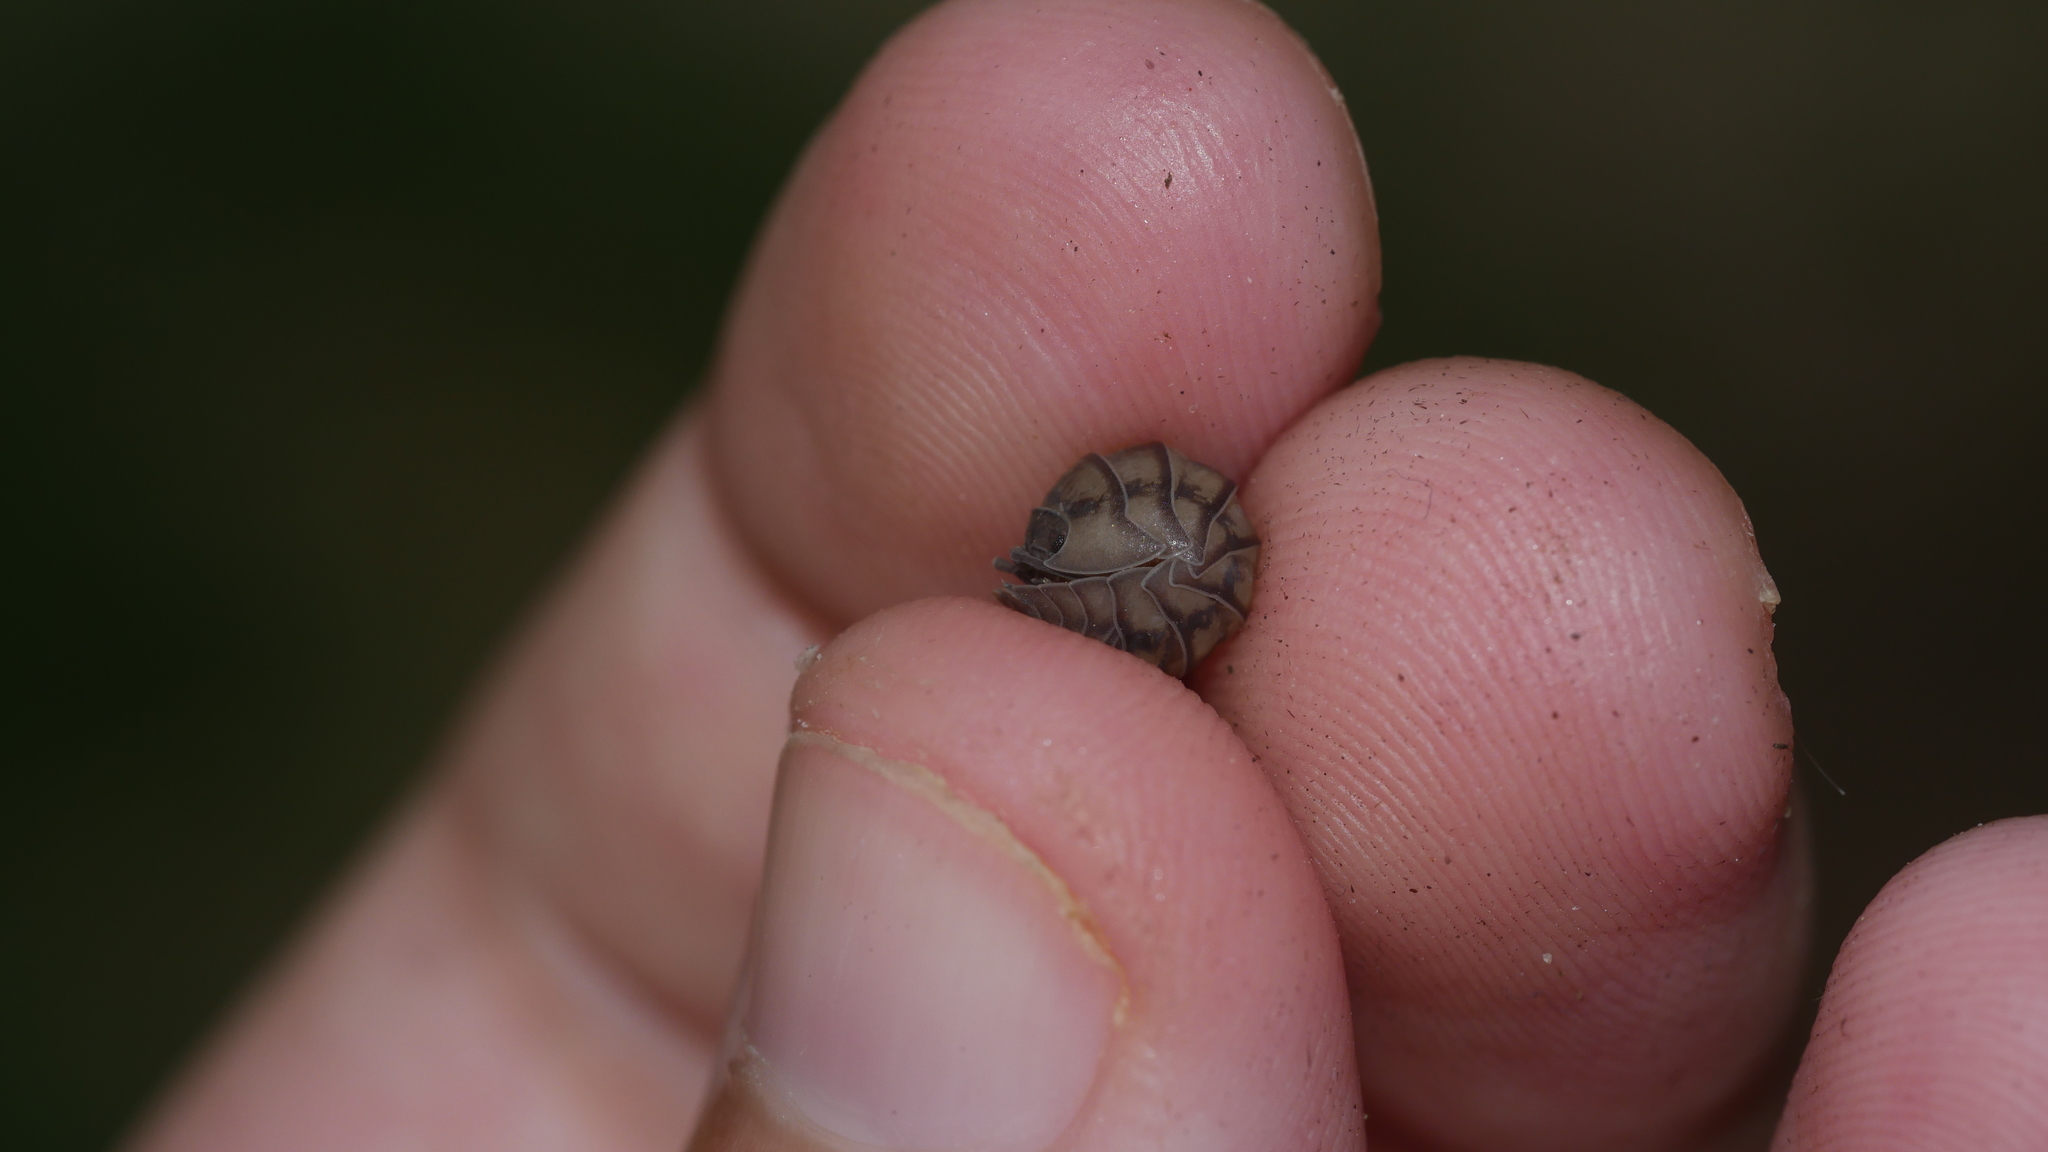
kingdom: Animalia
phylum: Arthropoda
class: Malacostraca
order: Isopoda
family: Armadillidiidae
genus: Armadillidium
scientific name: Armadillidium nasatum
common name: Isopod
